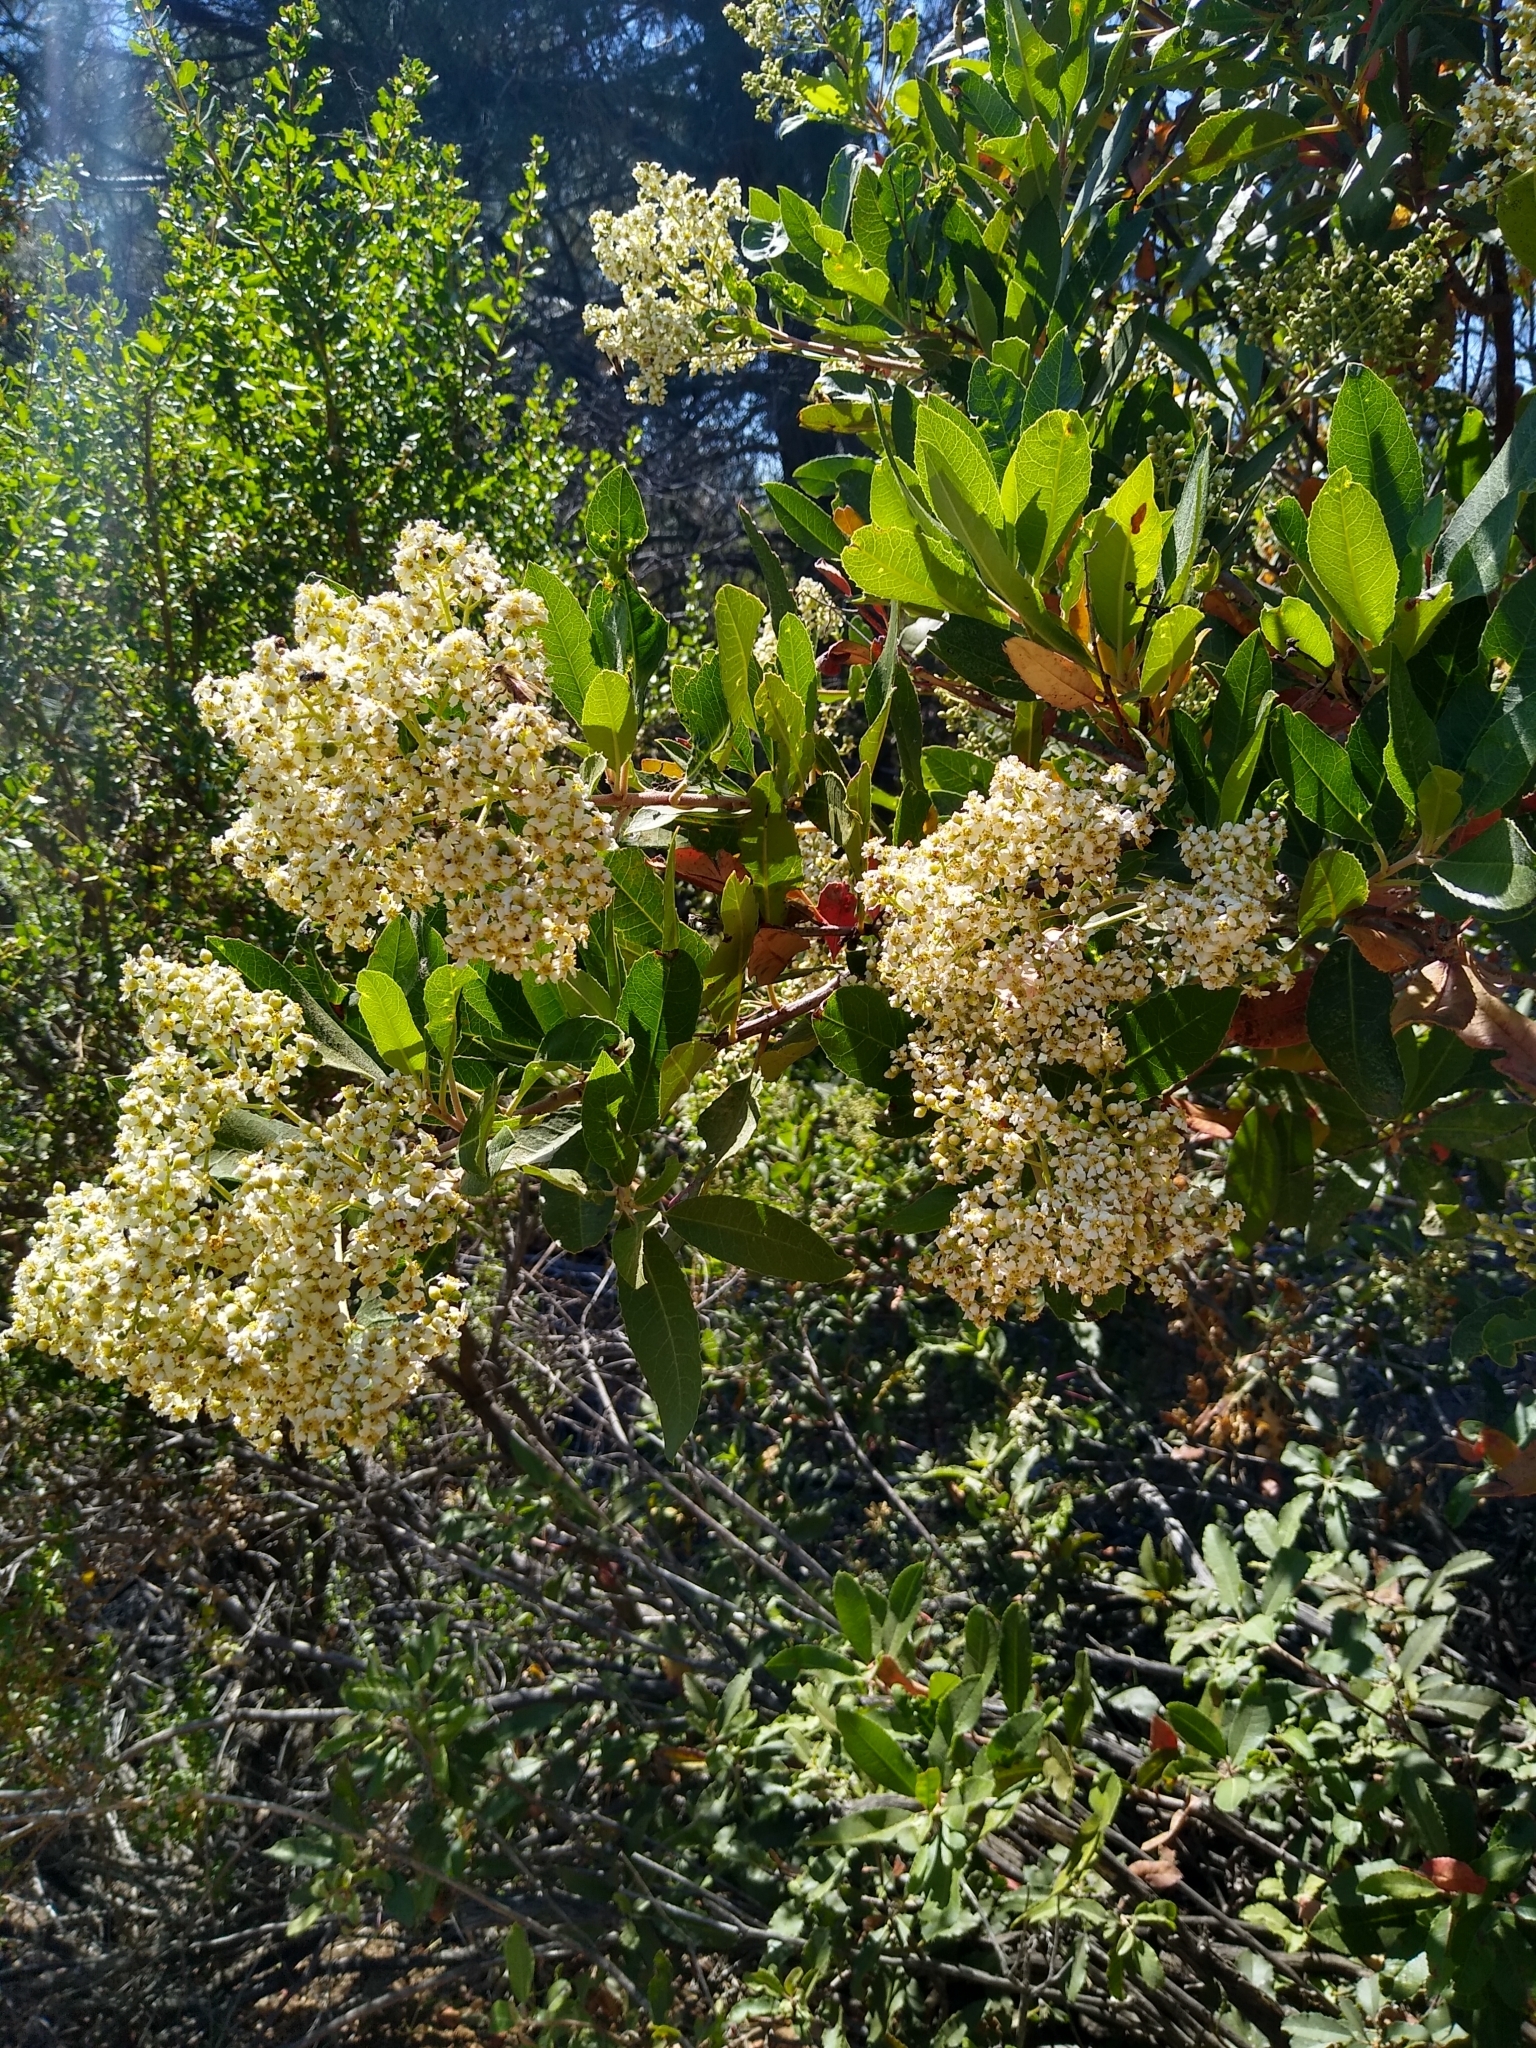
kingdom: Plantae
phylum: Tracheophyta
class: Magnoliopsida
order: Rosales
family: Rosaceae
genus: Heteromeles
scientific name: Heteromeles arbutifolia
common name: California-holly
